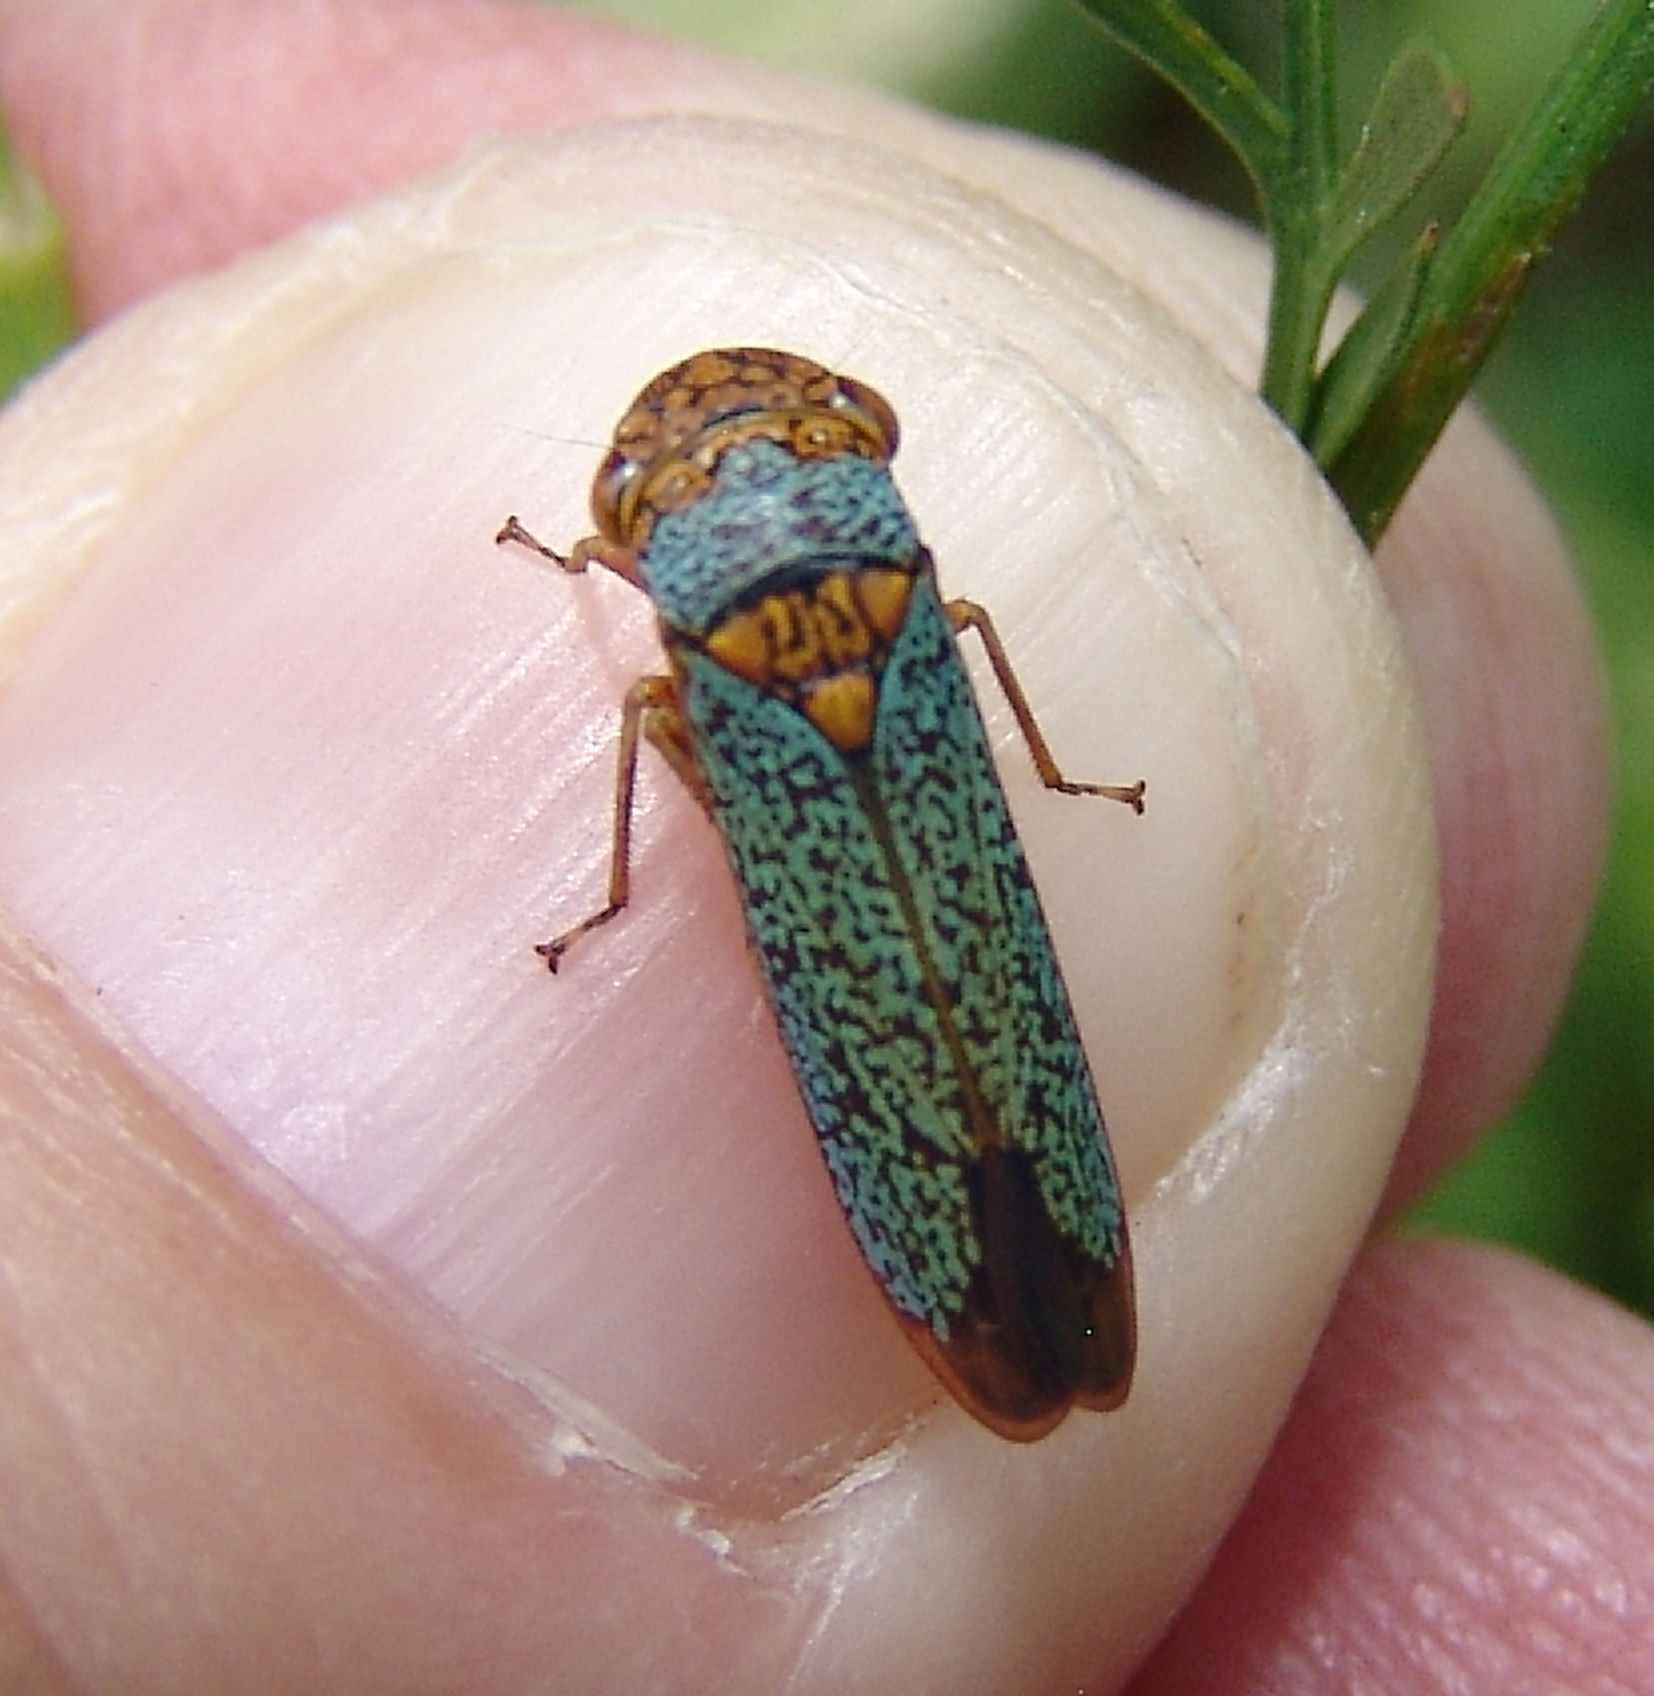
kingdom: Animalia
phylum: Arthropoda
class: Insecta
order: Hemiptera
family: Cicadellidae
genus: Oncometopia
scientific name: Oncometopia orbona
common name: Broad-headed sharpshooter
